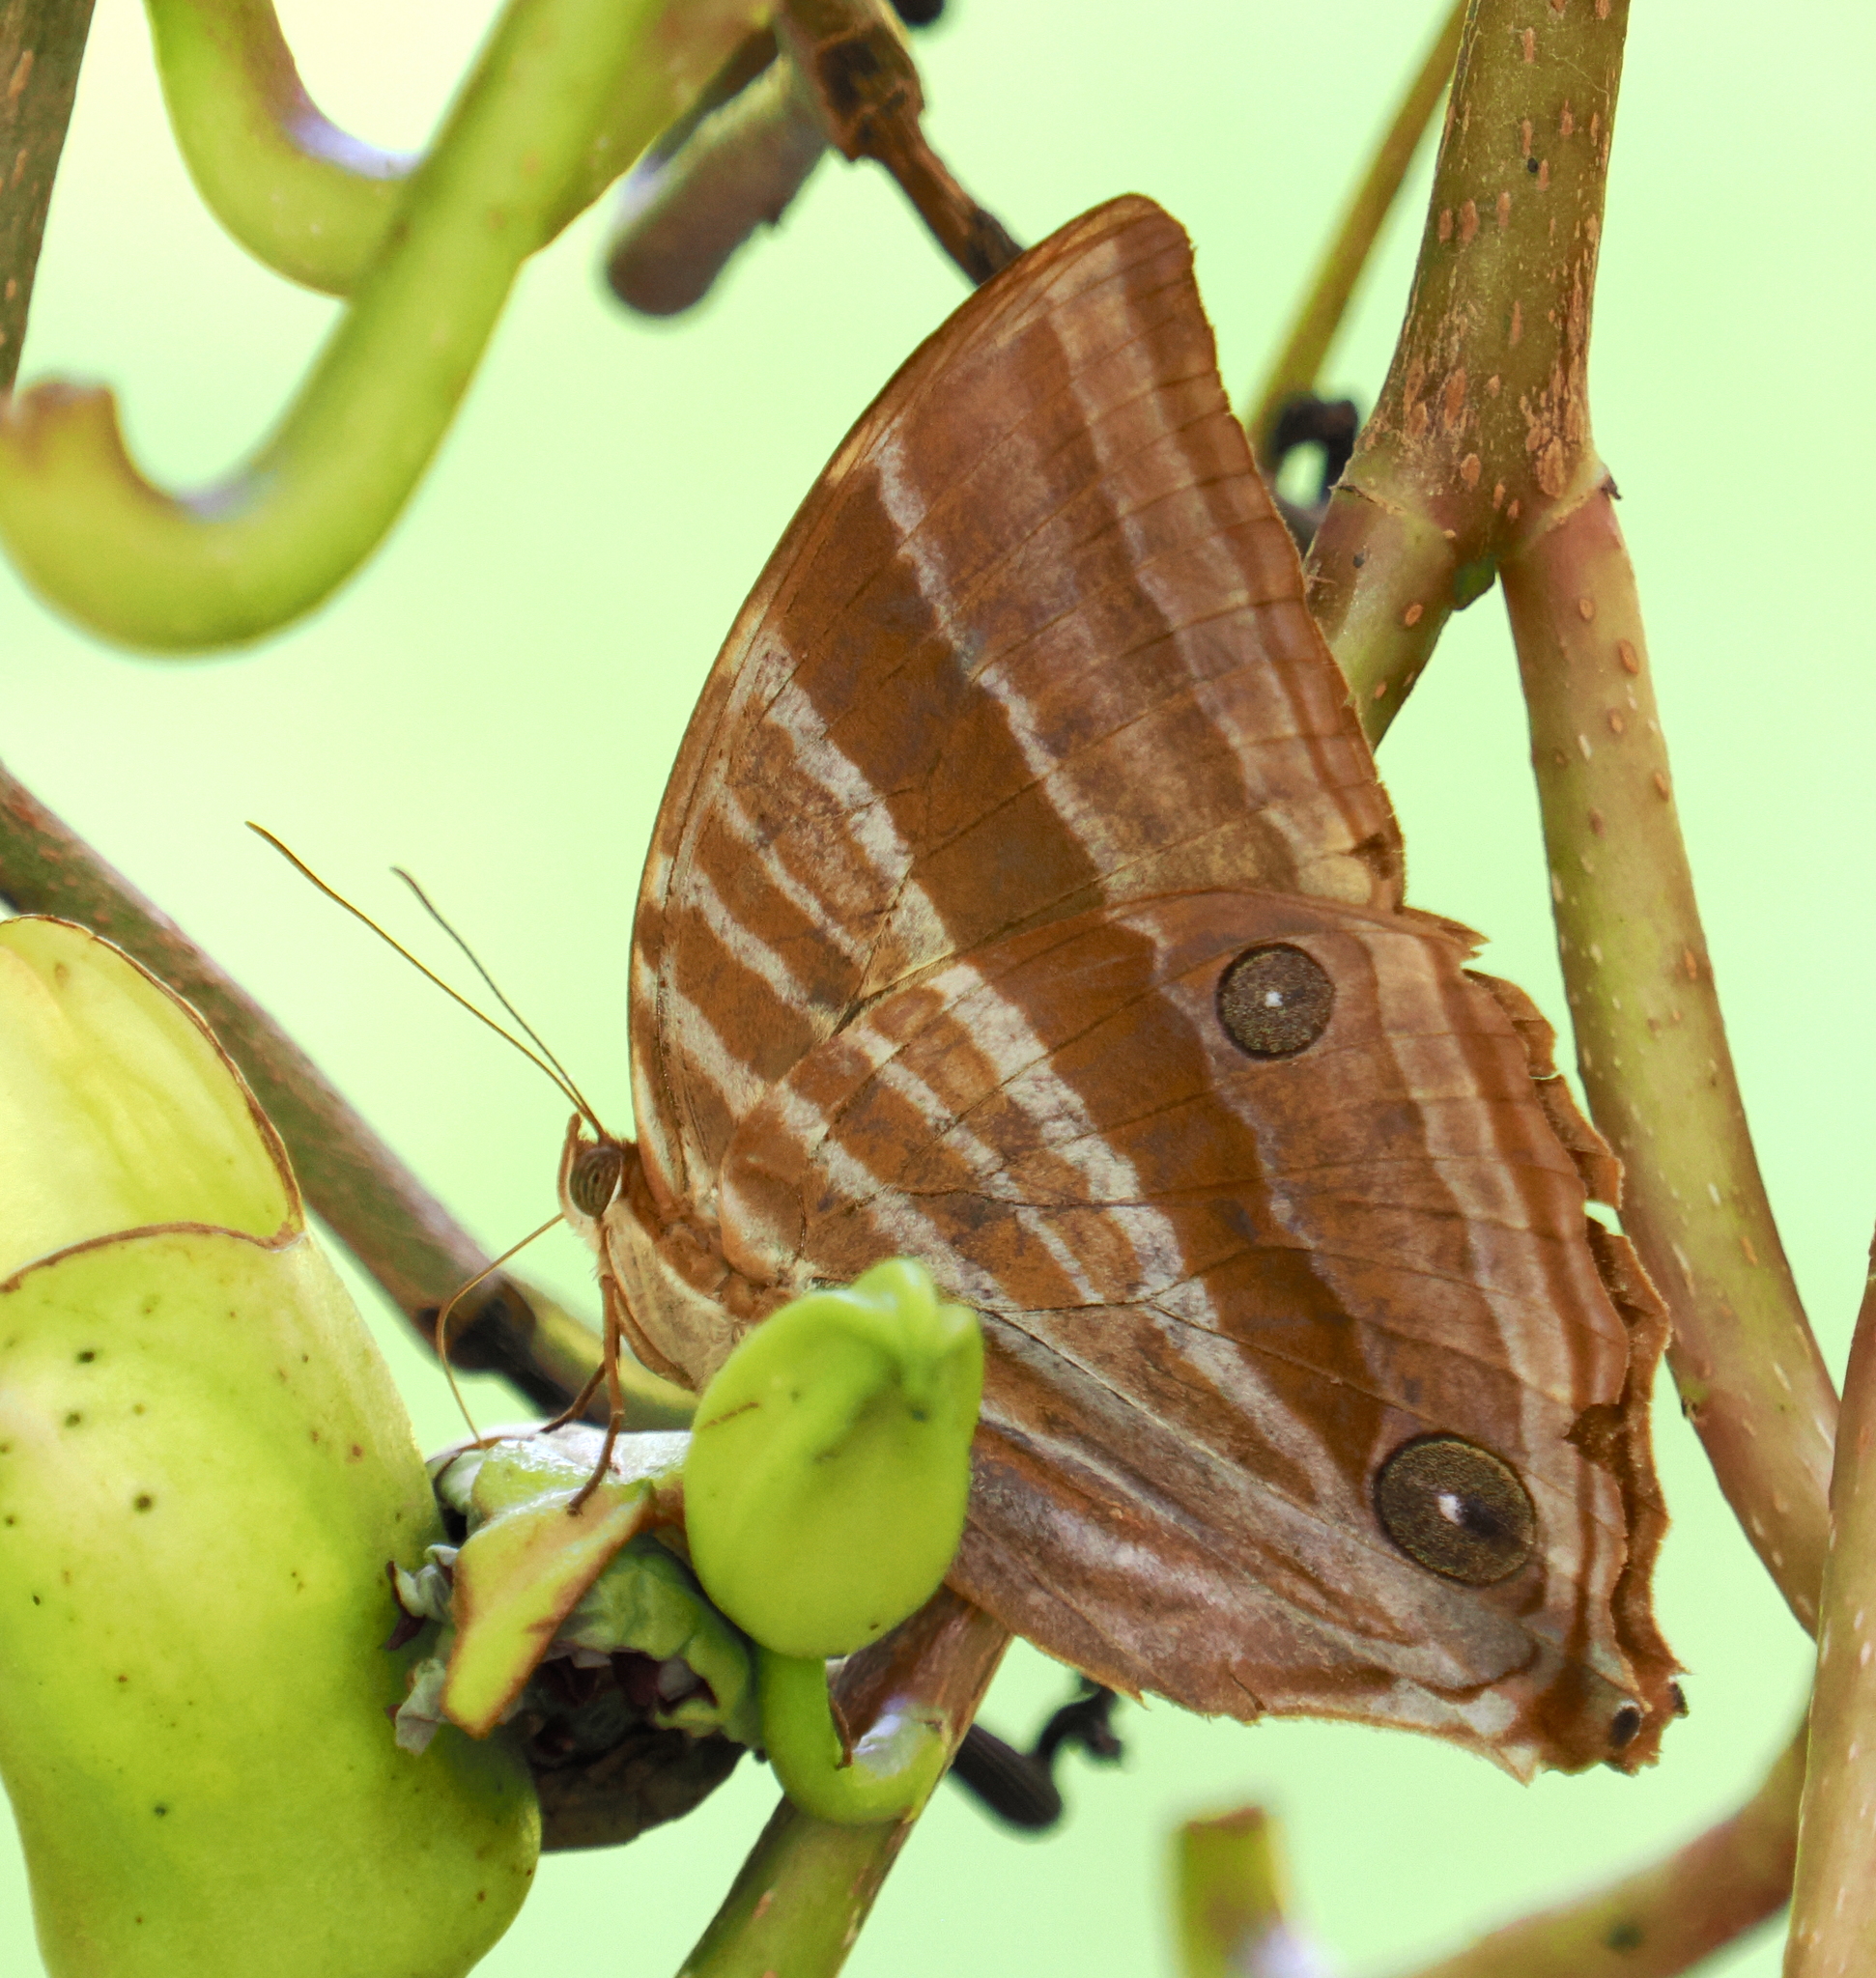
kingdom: Animalia
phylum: Arthropoda
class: Insecta
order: Lepidoptera
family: Nymphalidae
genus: Amathusia
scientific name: Amathusia phidippus
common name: Palm king
